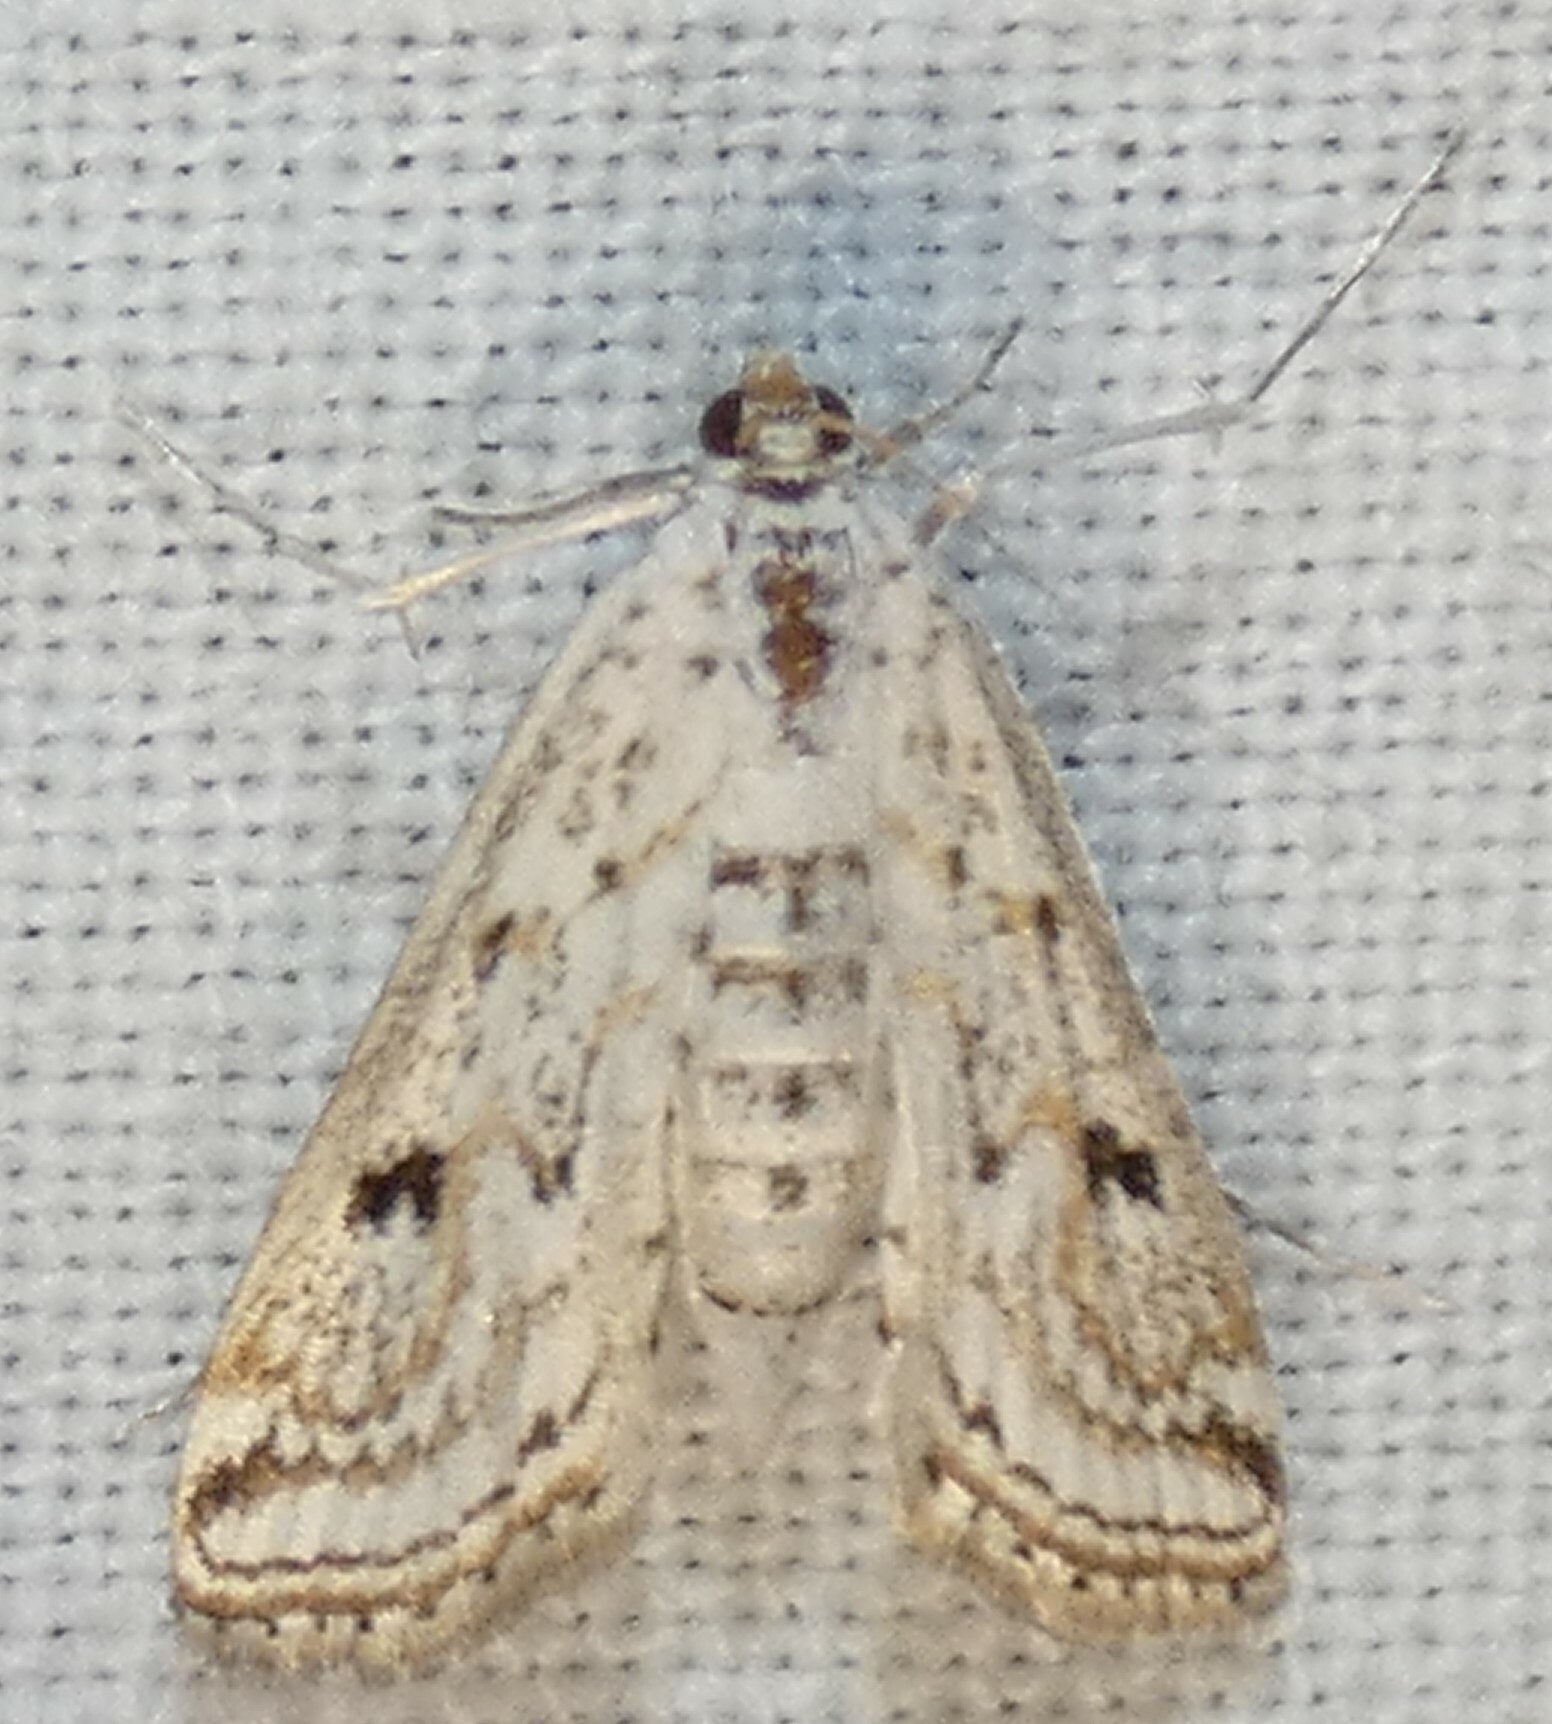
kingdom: Animalia
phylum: Arthropoda
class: Insecta
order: Lepidoptera
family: Crambidae
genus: Parapoynx
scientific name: Parapoynx allionealis
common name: Bladderwort casemaker
